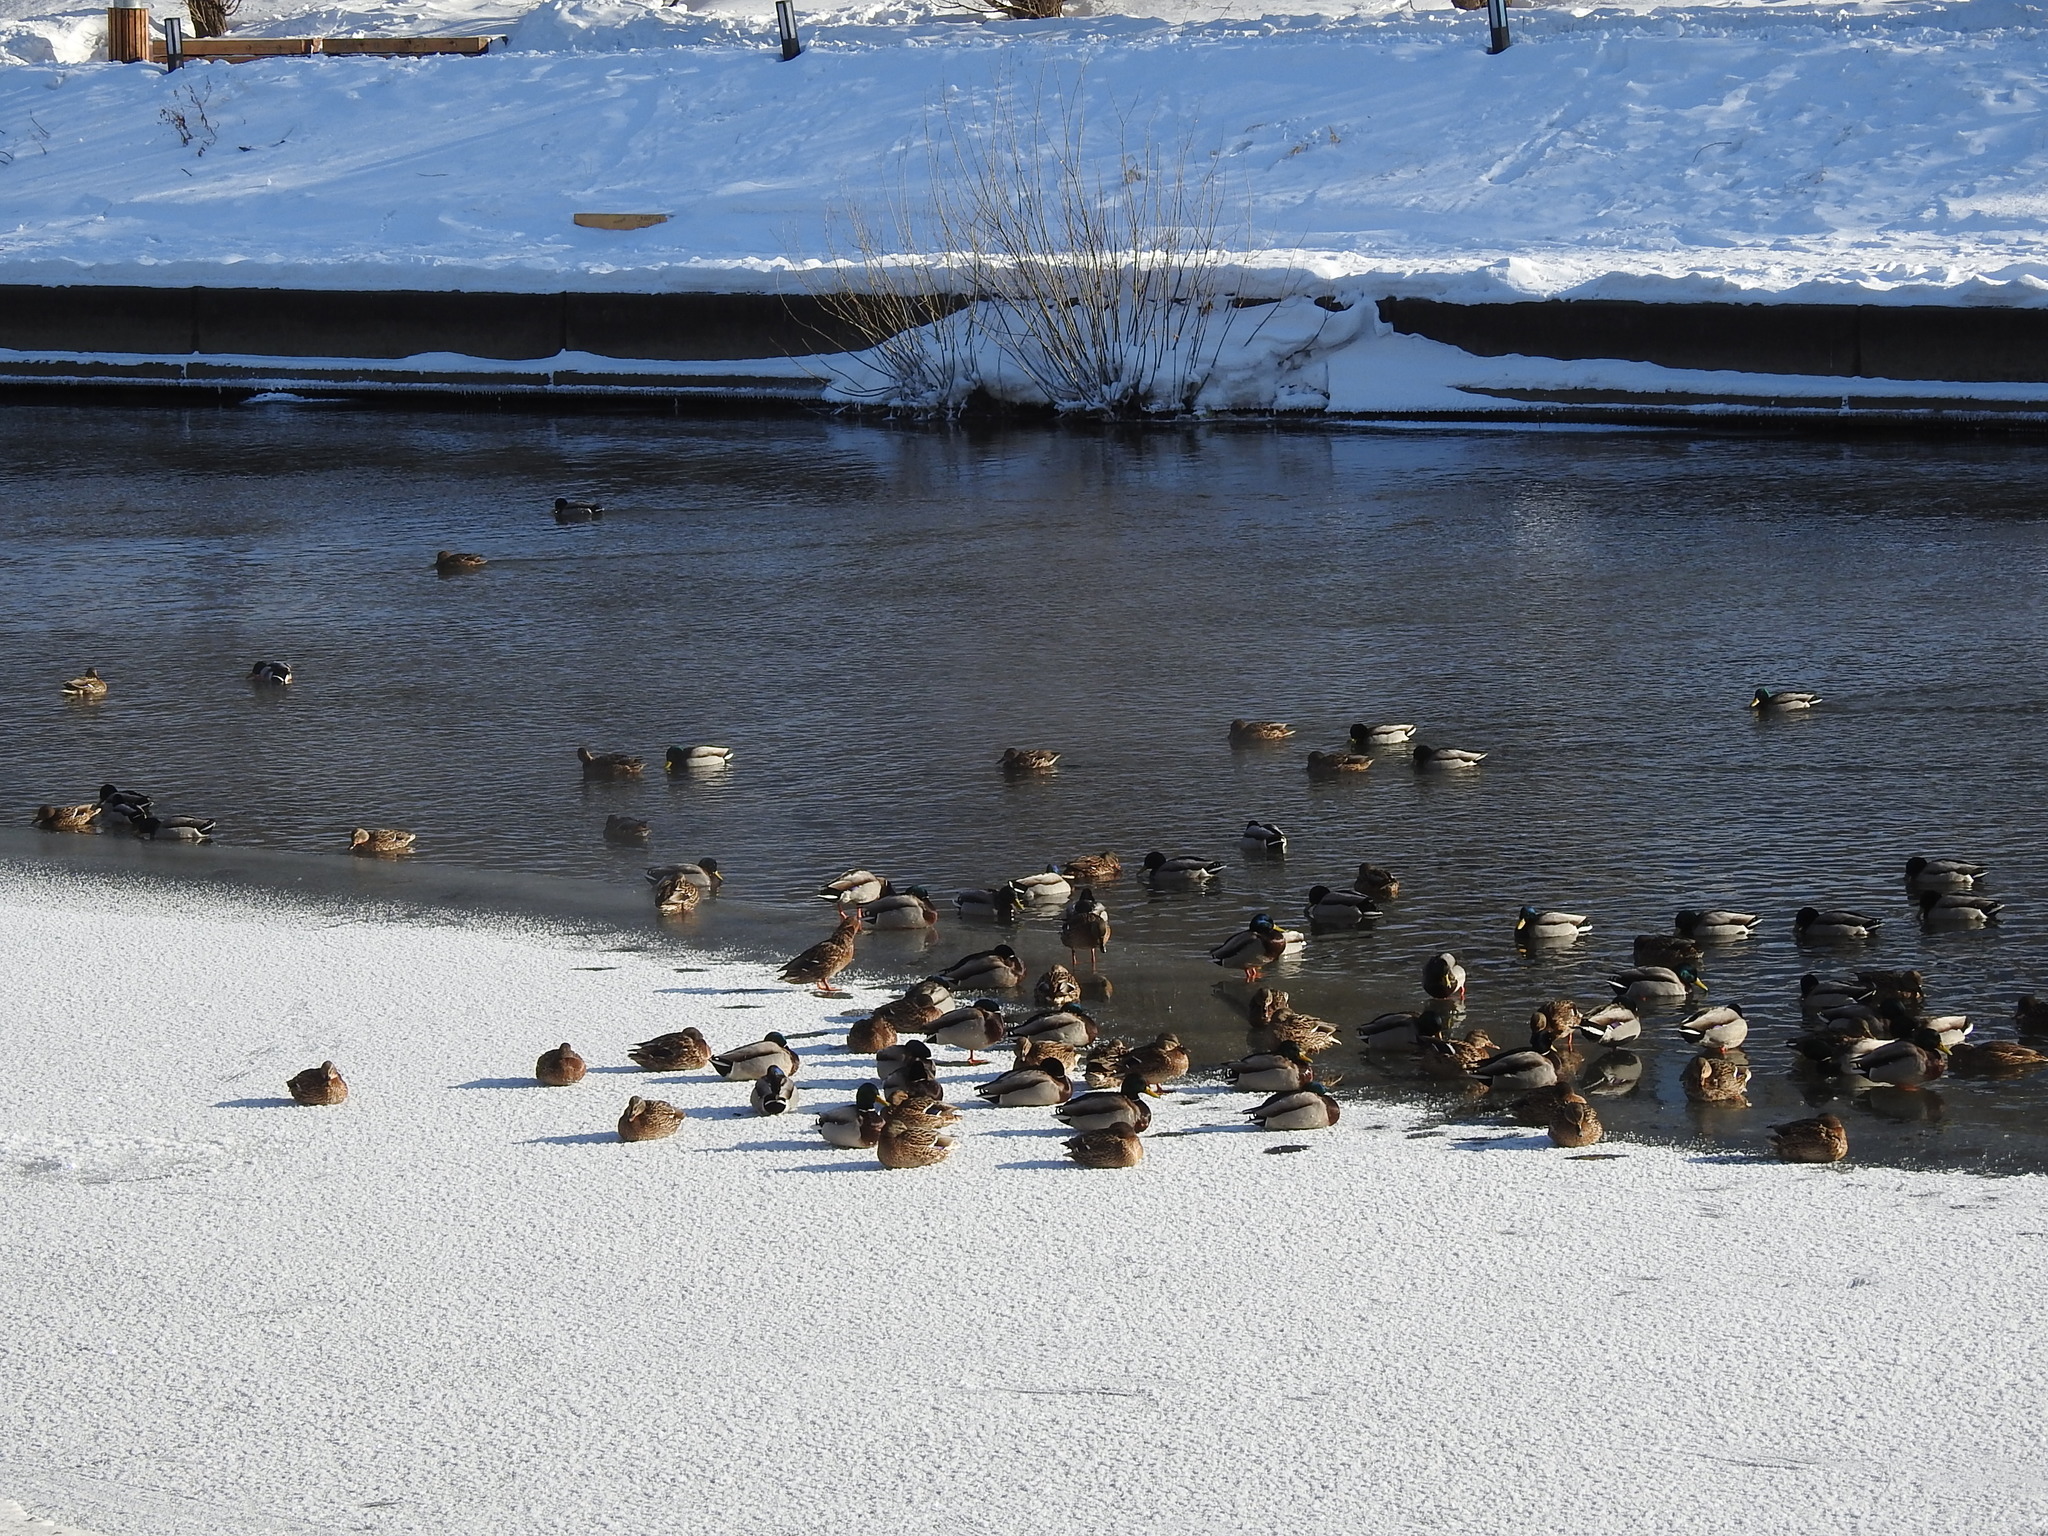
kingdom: Animalia
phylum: Chordata
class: Aves
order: Anseriformes
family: Anatidae
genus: Anas
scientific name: Anas platyrhynchos
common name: Mallard
